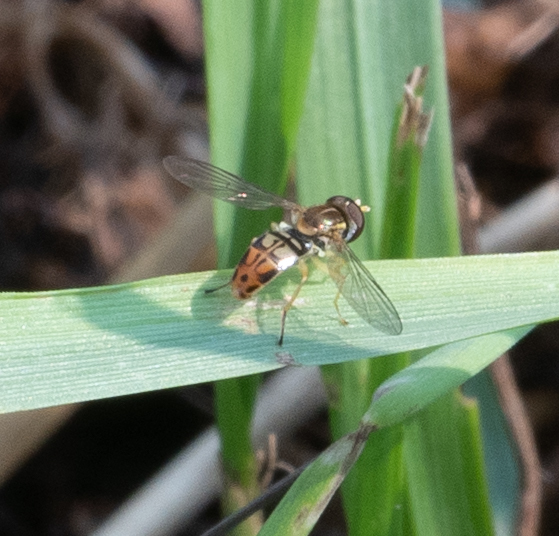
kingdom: Animalia
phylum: Arthropoda
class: Insecta
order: Diptera
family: Syrphidae
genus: Toxomerus
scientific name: Toxomerus marginatus
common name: Syrphid fly
